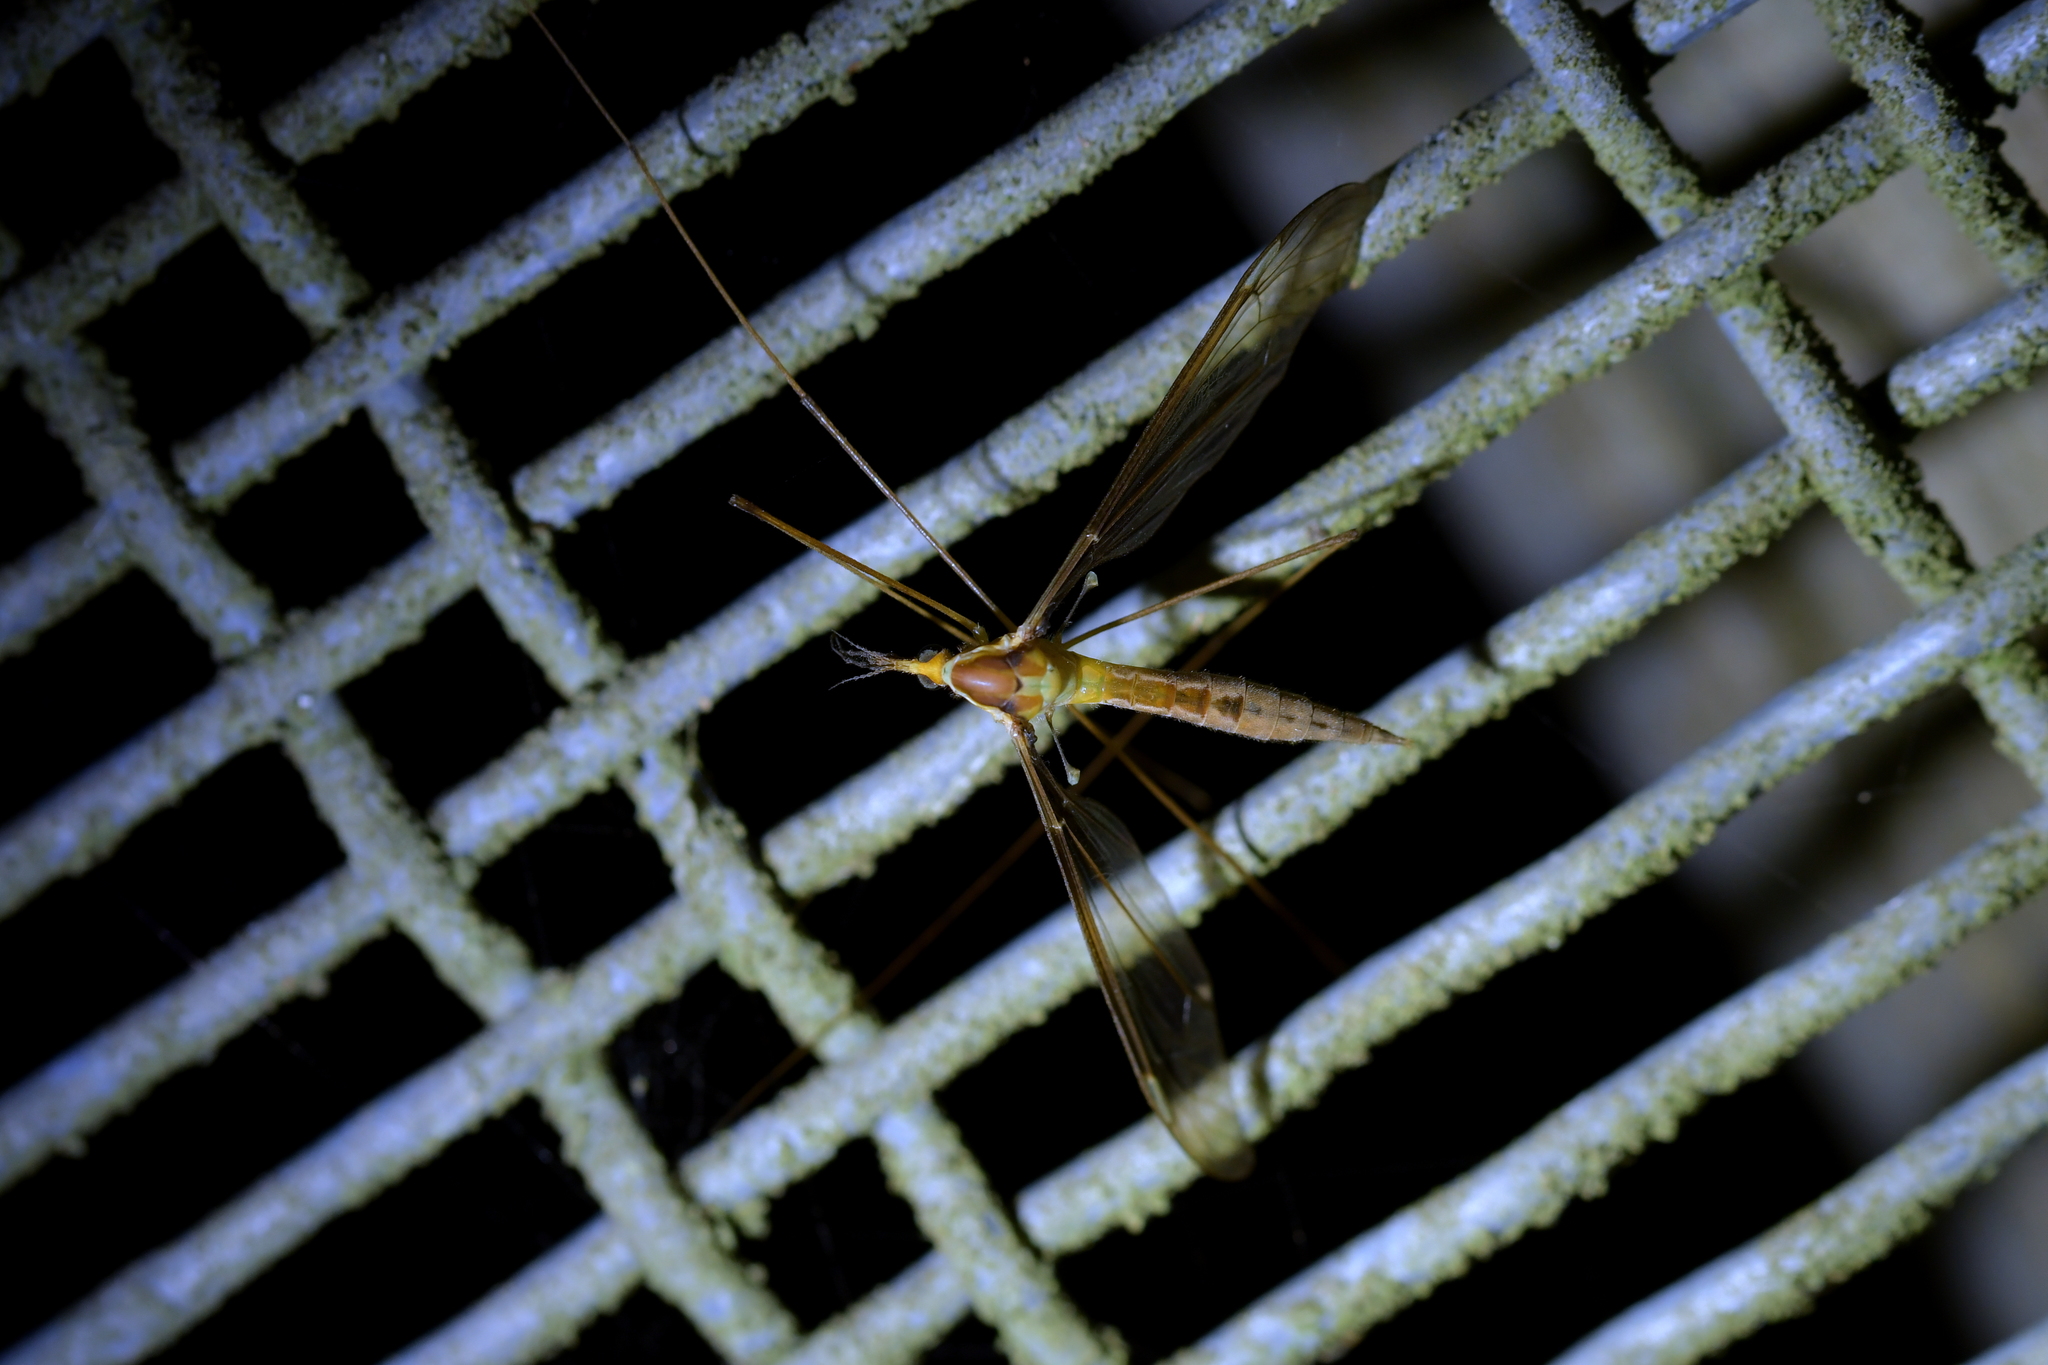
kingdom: Animalia
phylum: Arthropoda
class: Insecta
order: Diptera
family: Tipulidae
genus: Leptotarsus
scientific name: Leptotarsus albistigma
